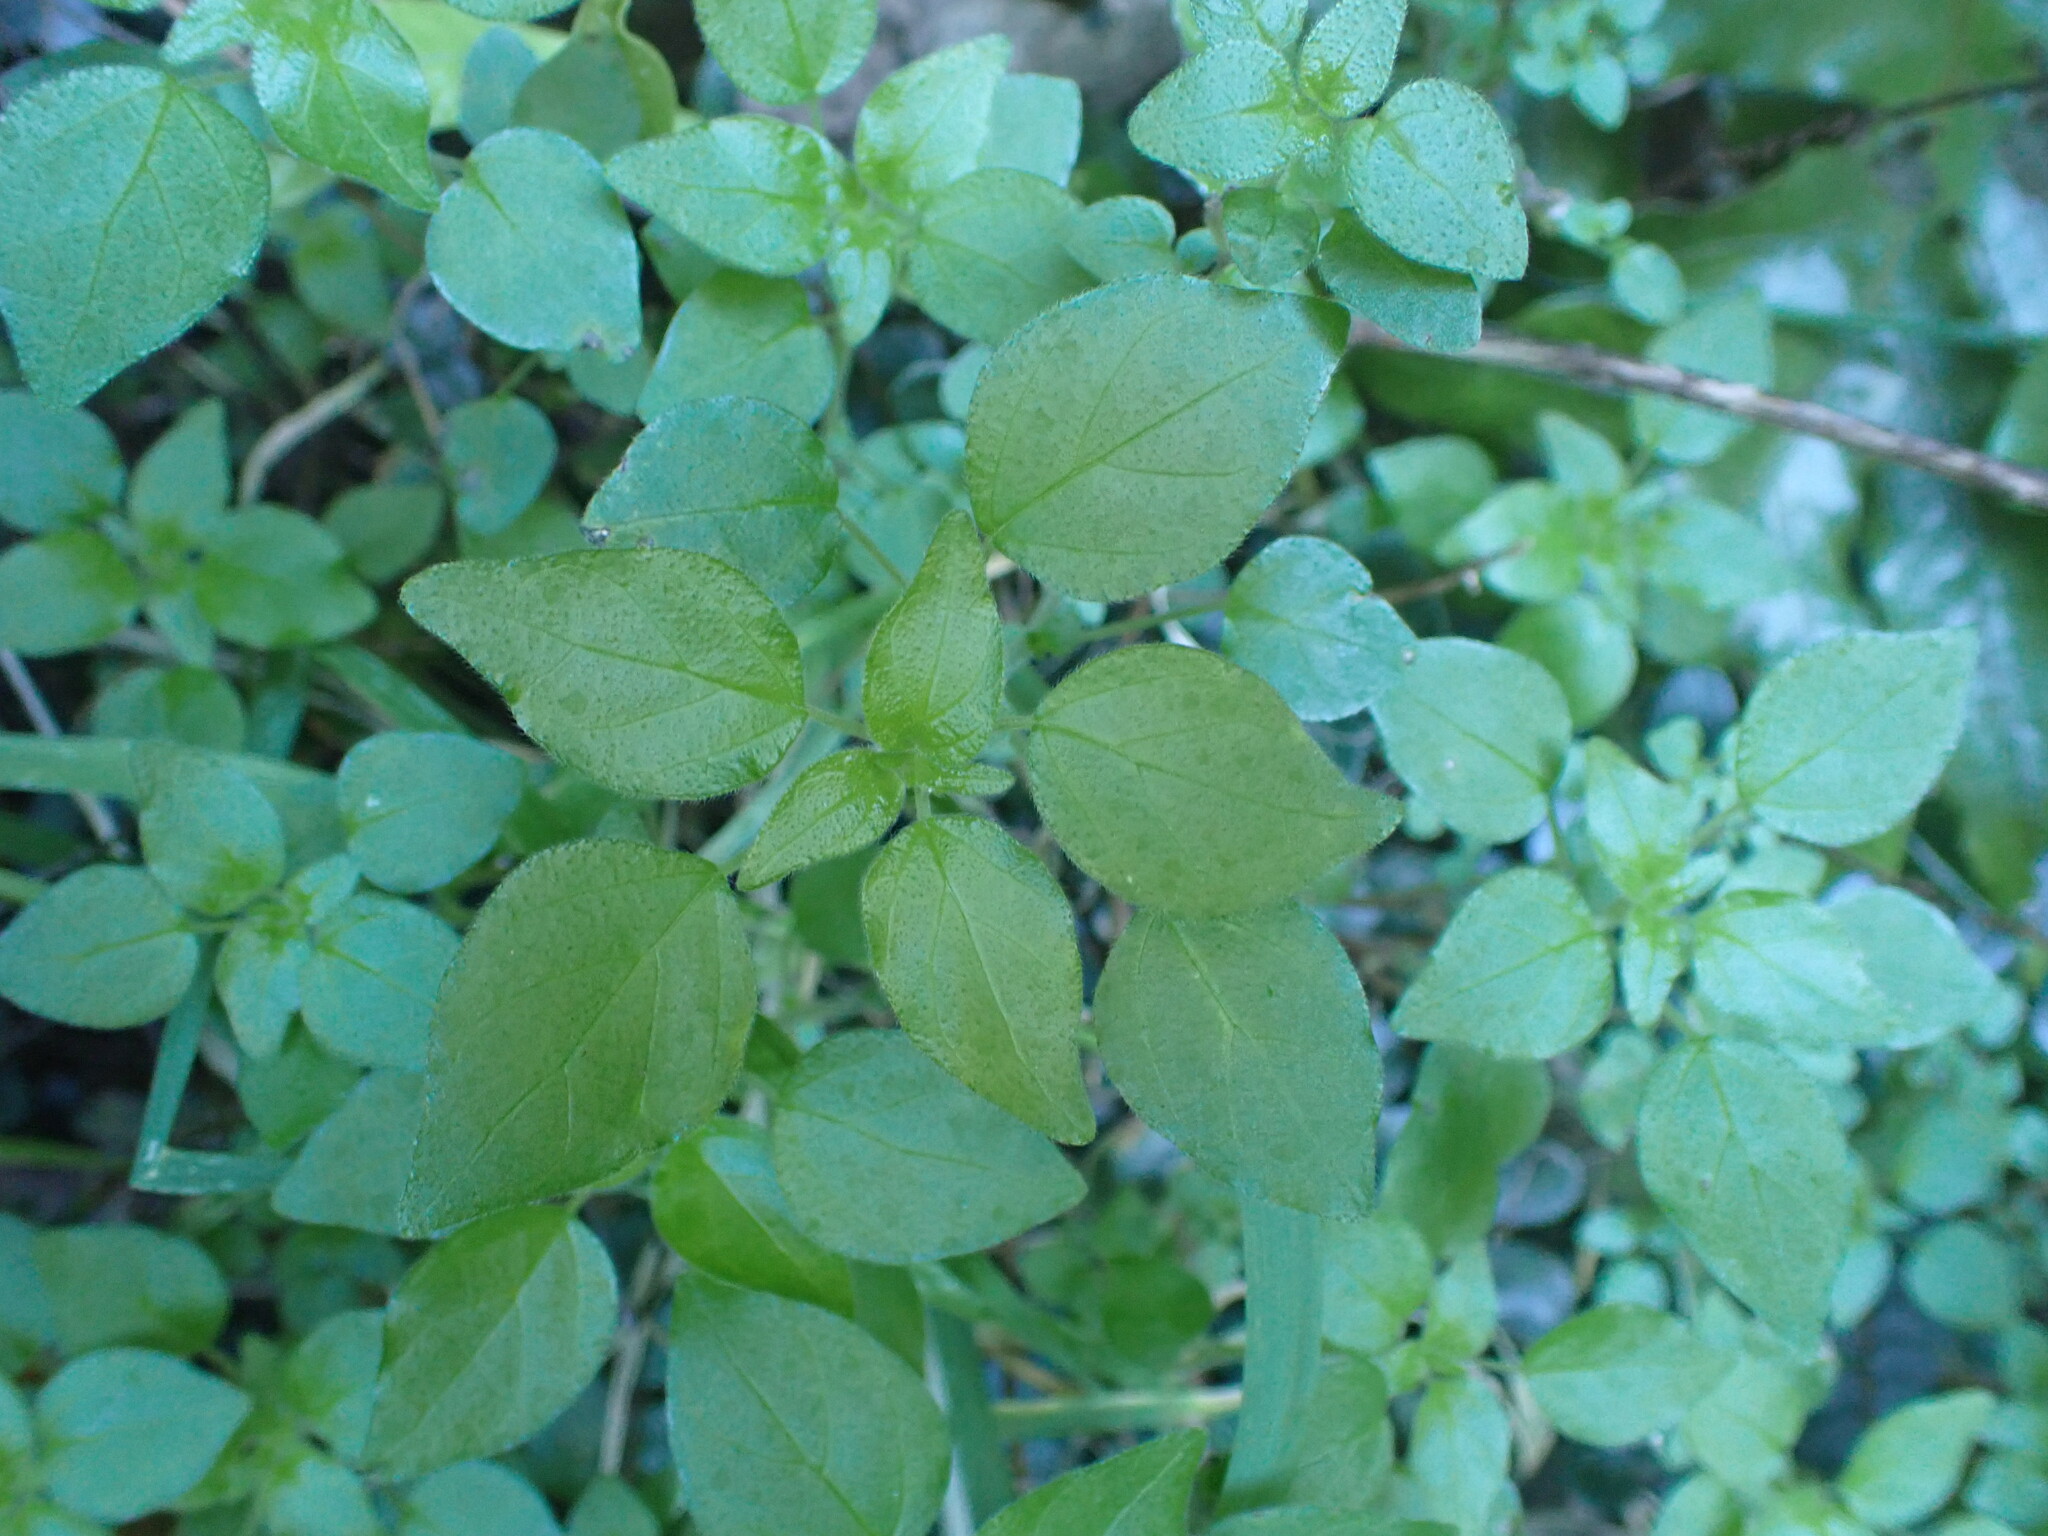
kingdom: Plantae
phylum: Tracheophyta
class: Magnoliopsida
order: Rosales
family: Urticaceae
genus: Parietaria
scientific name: Parietaria debilis
